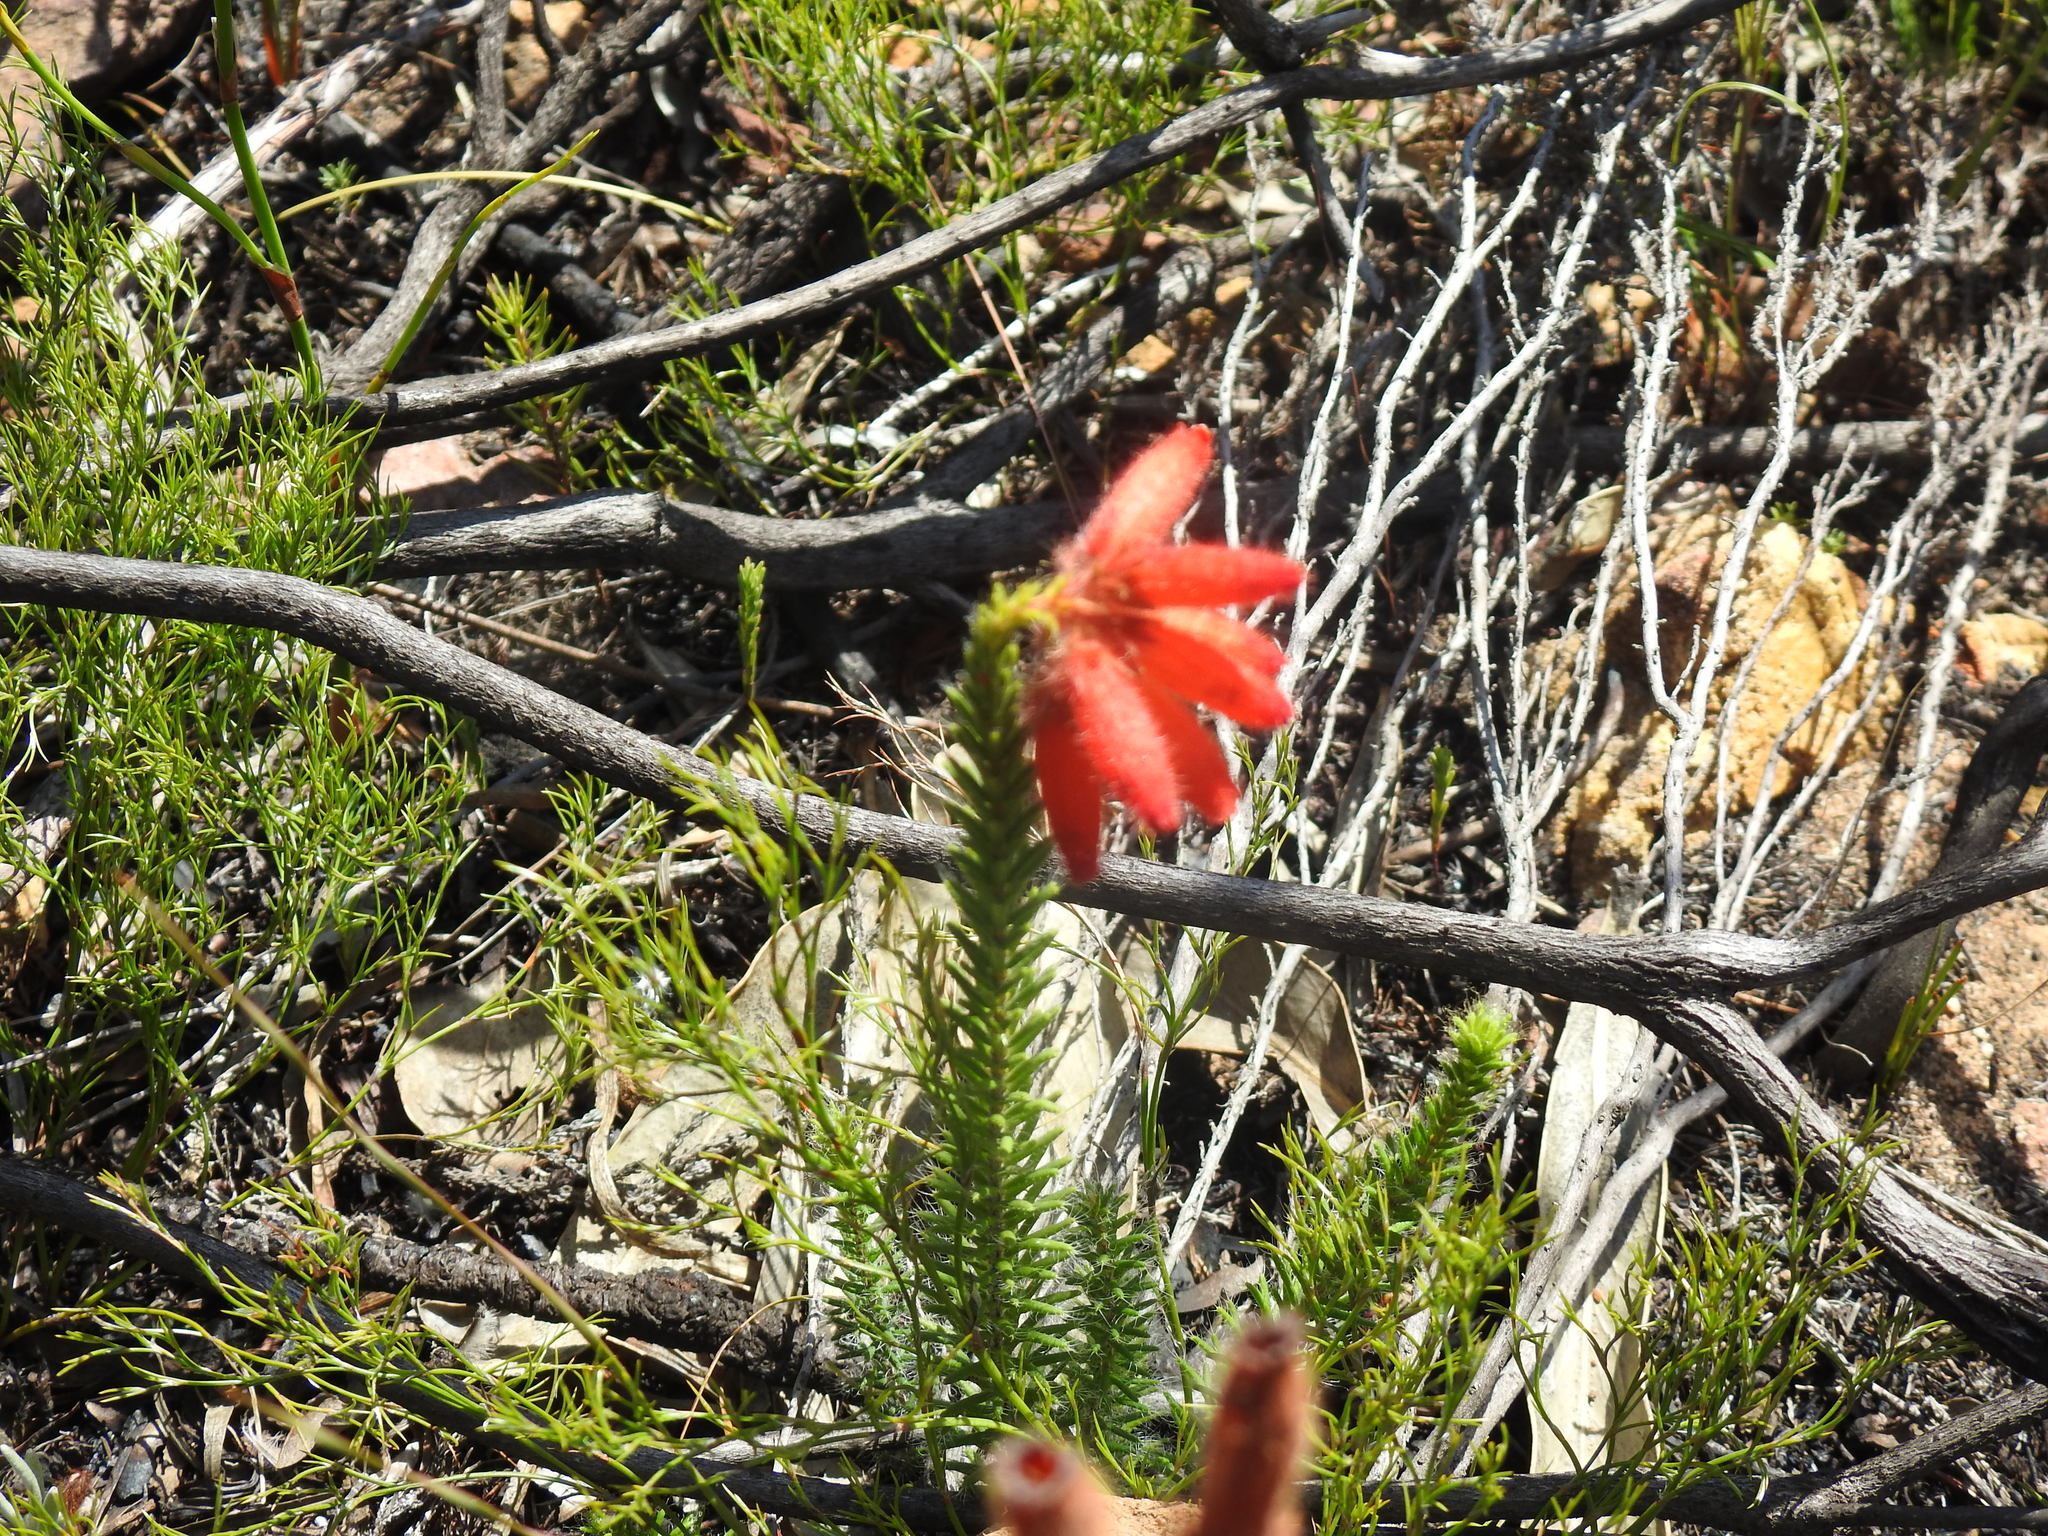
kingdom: Plantae
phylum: Tracheophyta
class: Magnoliopsida
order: Ericales
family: Ericaceae
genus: Erica
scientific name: Erica cerinthoides
